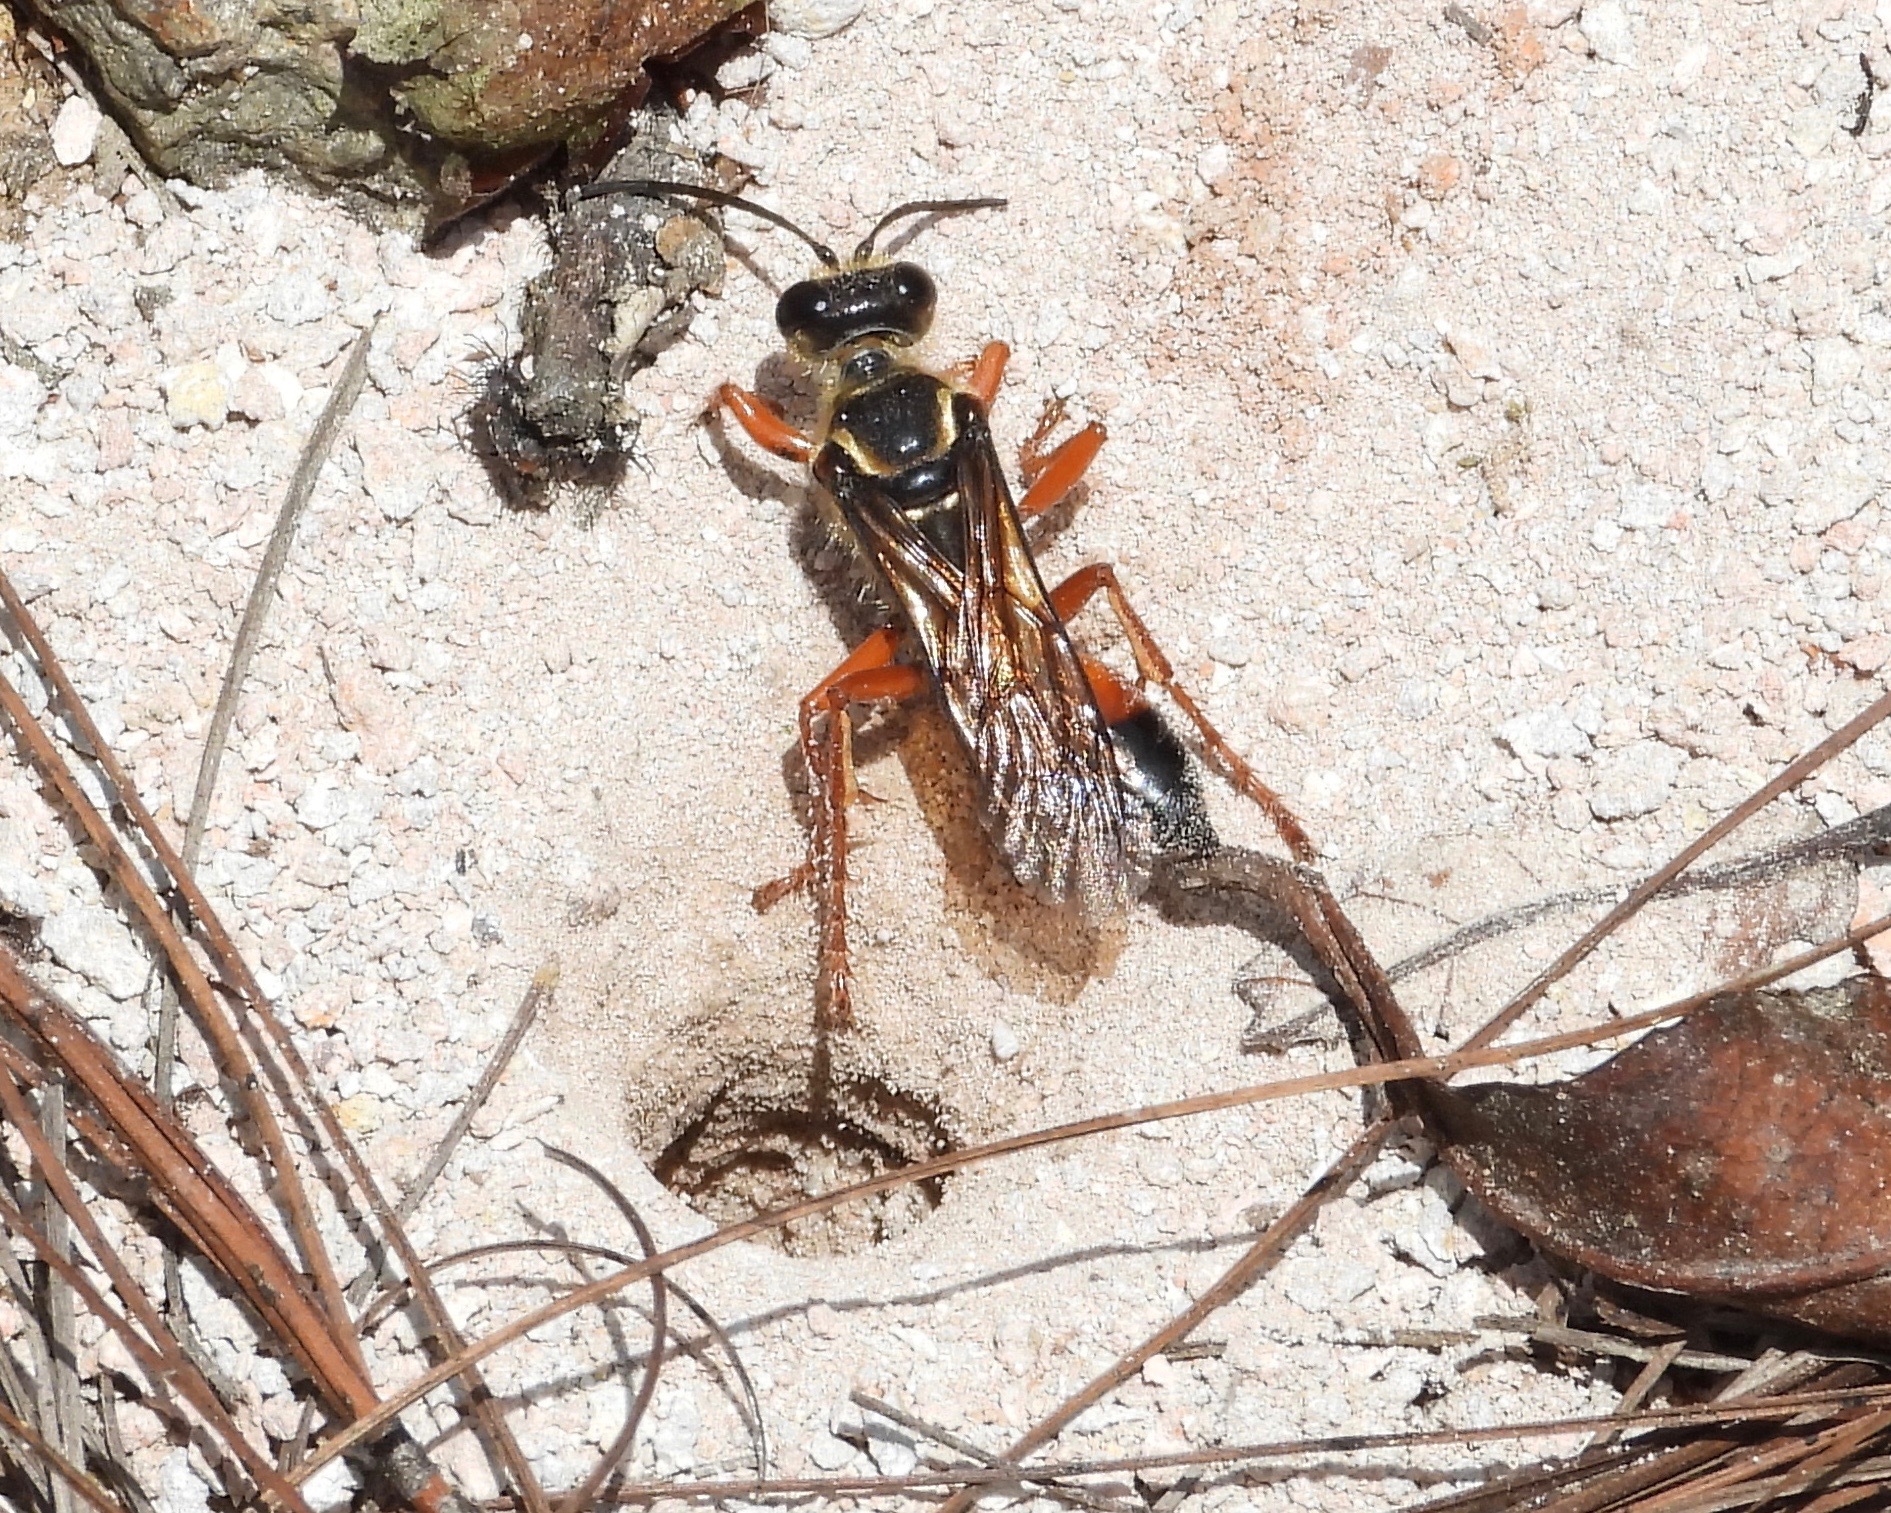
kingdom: Animalia
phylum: Arthropoda
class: Insecta
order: Hymenoptera
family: Sphecidae
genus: Sphex
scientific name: Sphex ichneumoneus
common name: Great golden digger wasp
